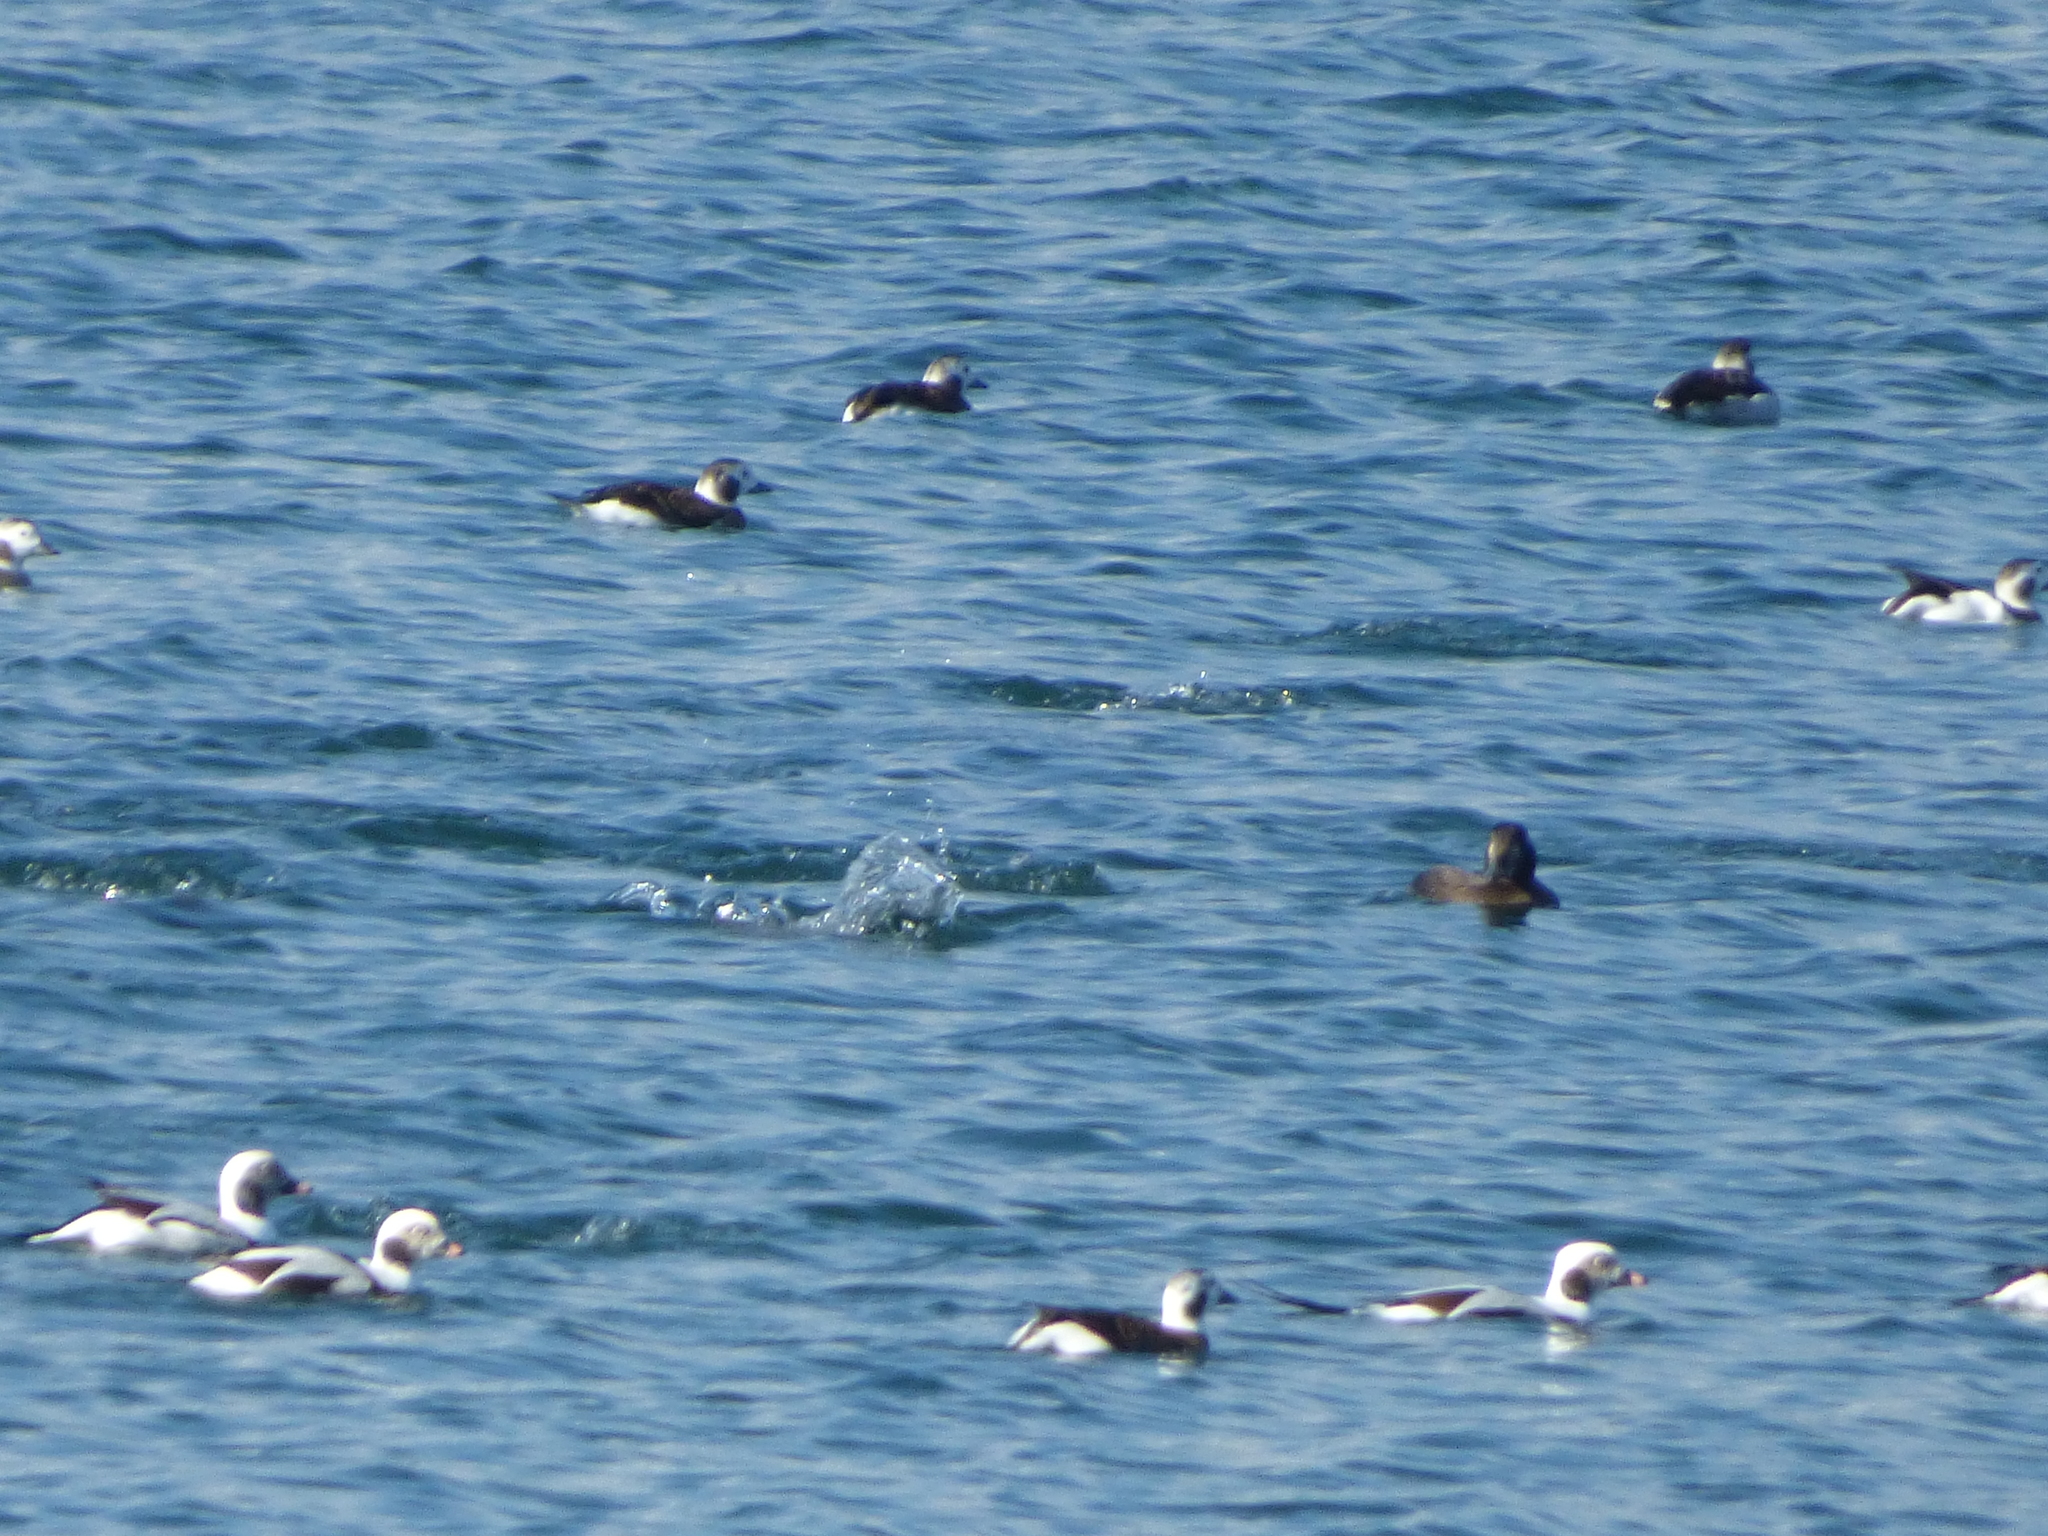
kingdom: Animalia
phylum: Chordata
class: Aves
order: Anseriformes
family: Anatidae
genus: Clangula
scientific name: Clangula hyemalis
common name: Long-tailed duck
